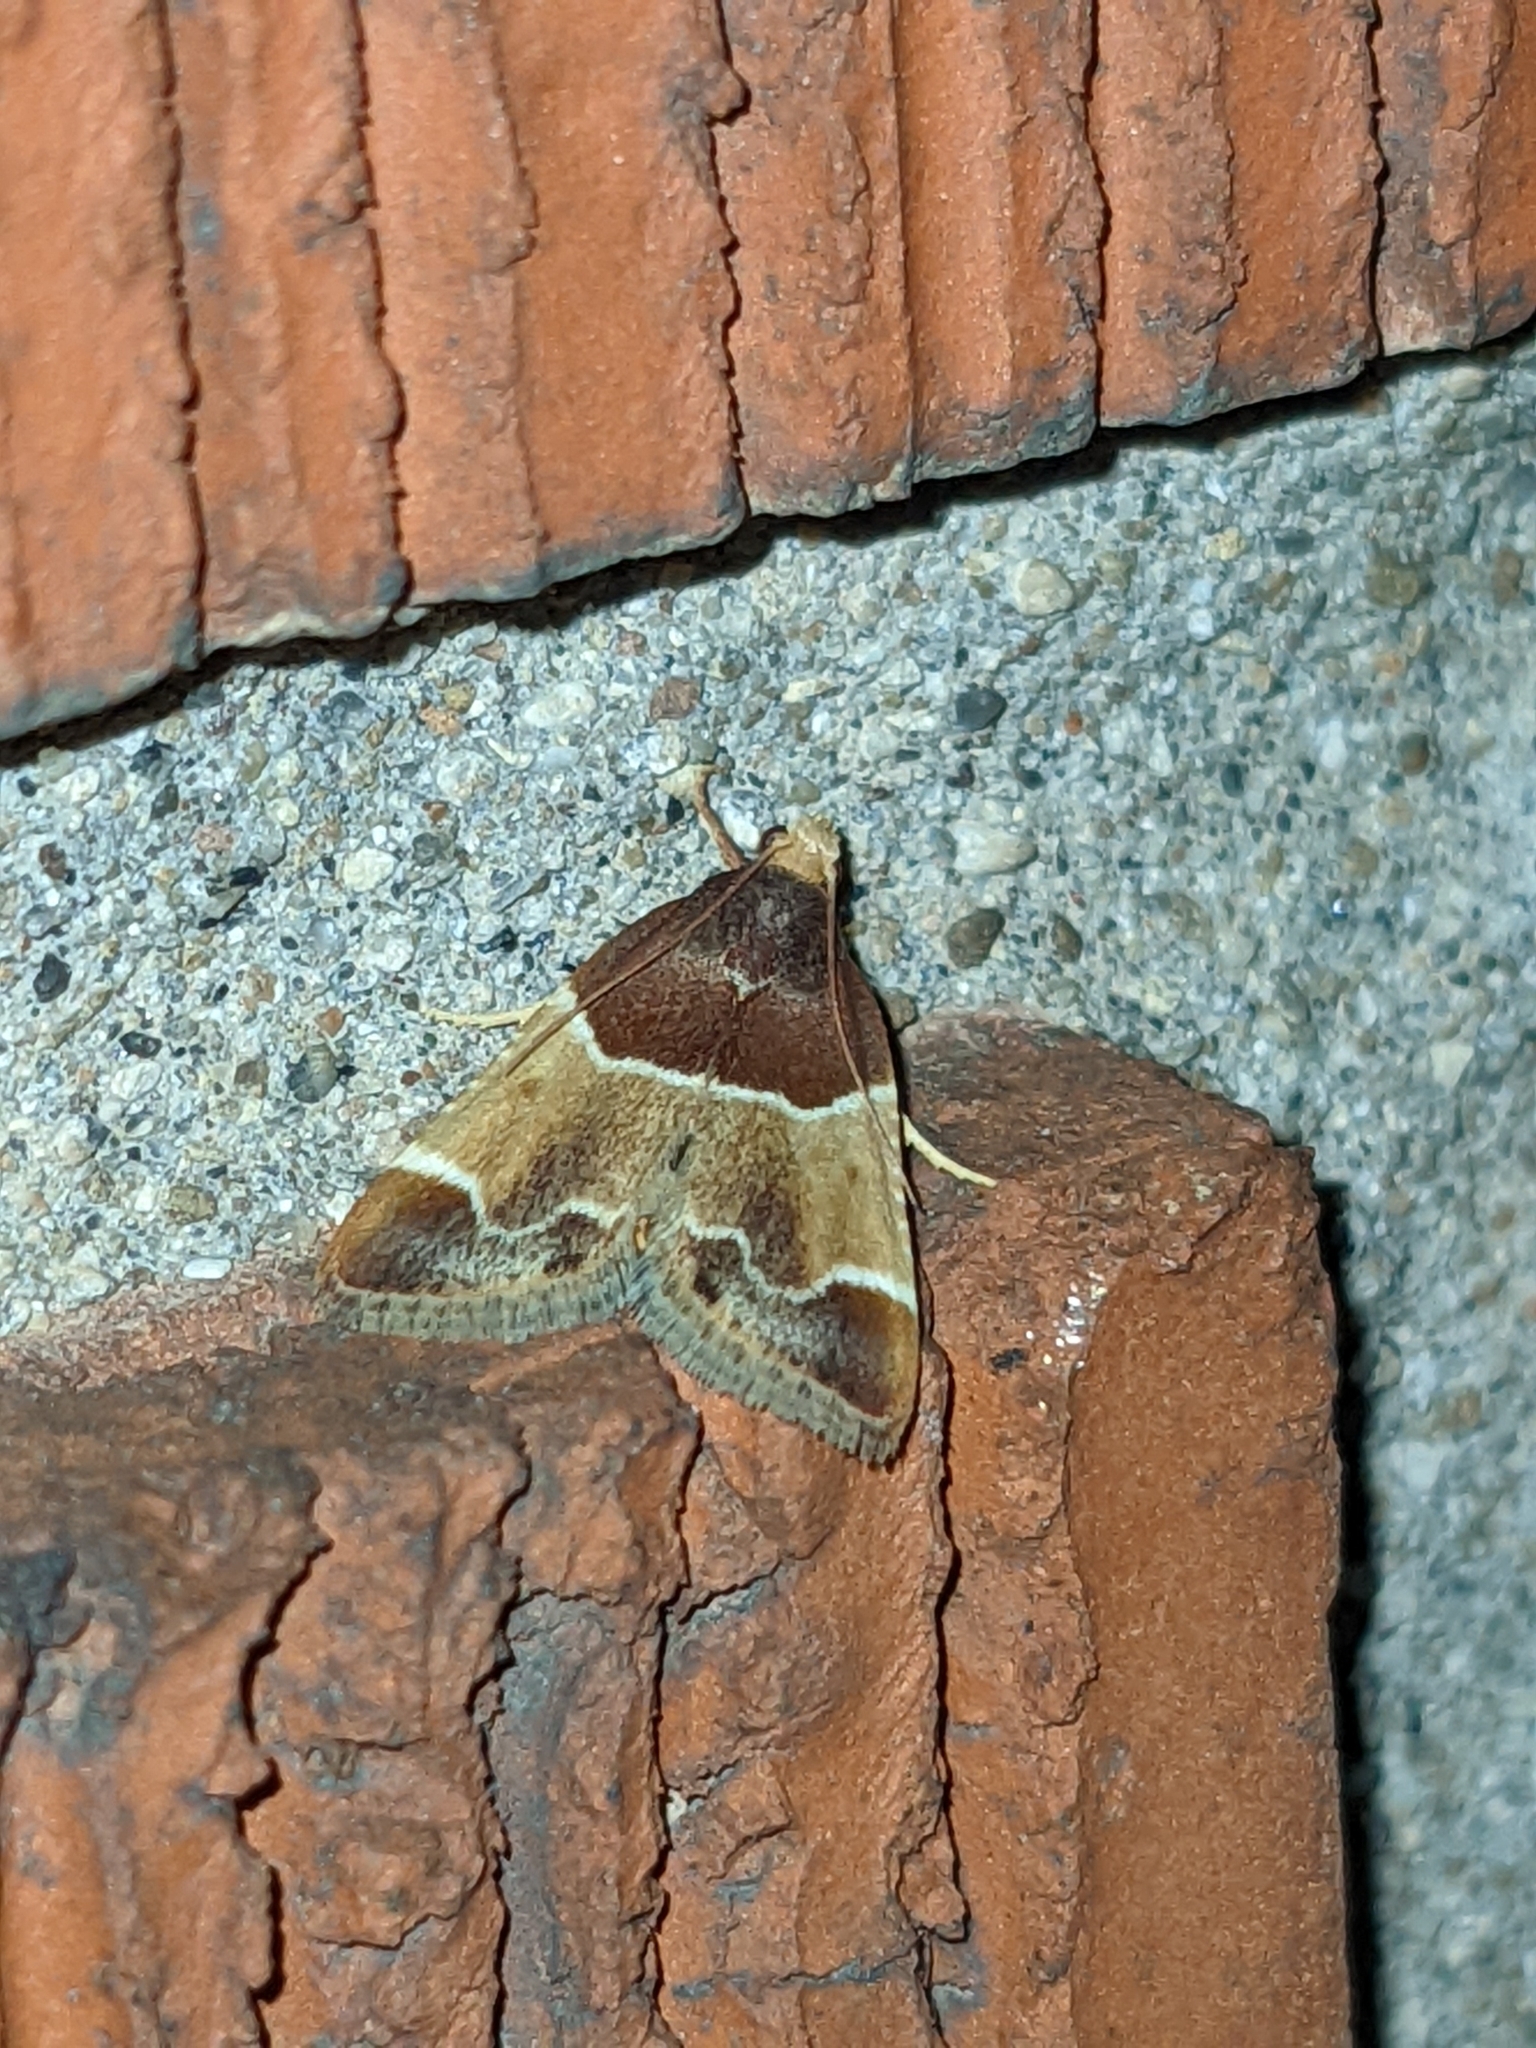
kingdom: Animalia
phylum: Arthropoda
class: Insecta
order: Lepidoptera
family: Pyralidae
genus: Pyralis
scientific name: Pyralis farinalis
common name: Meal moth
